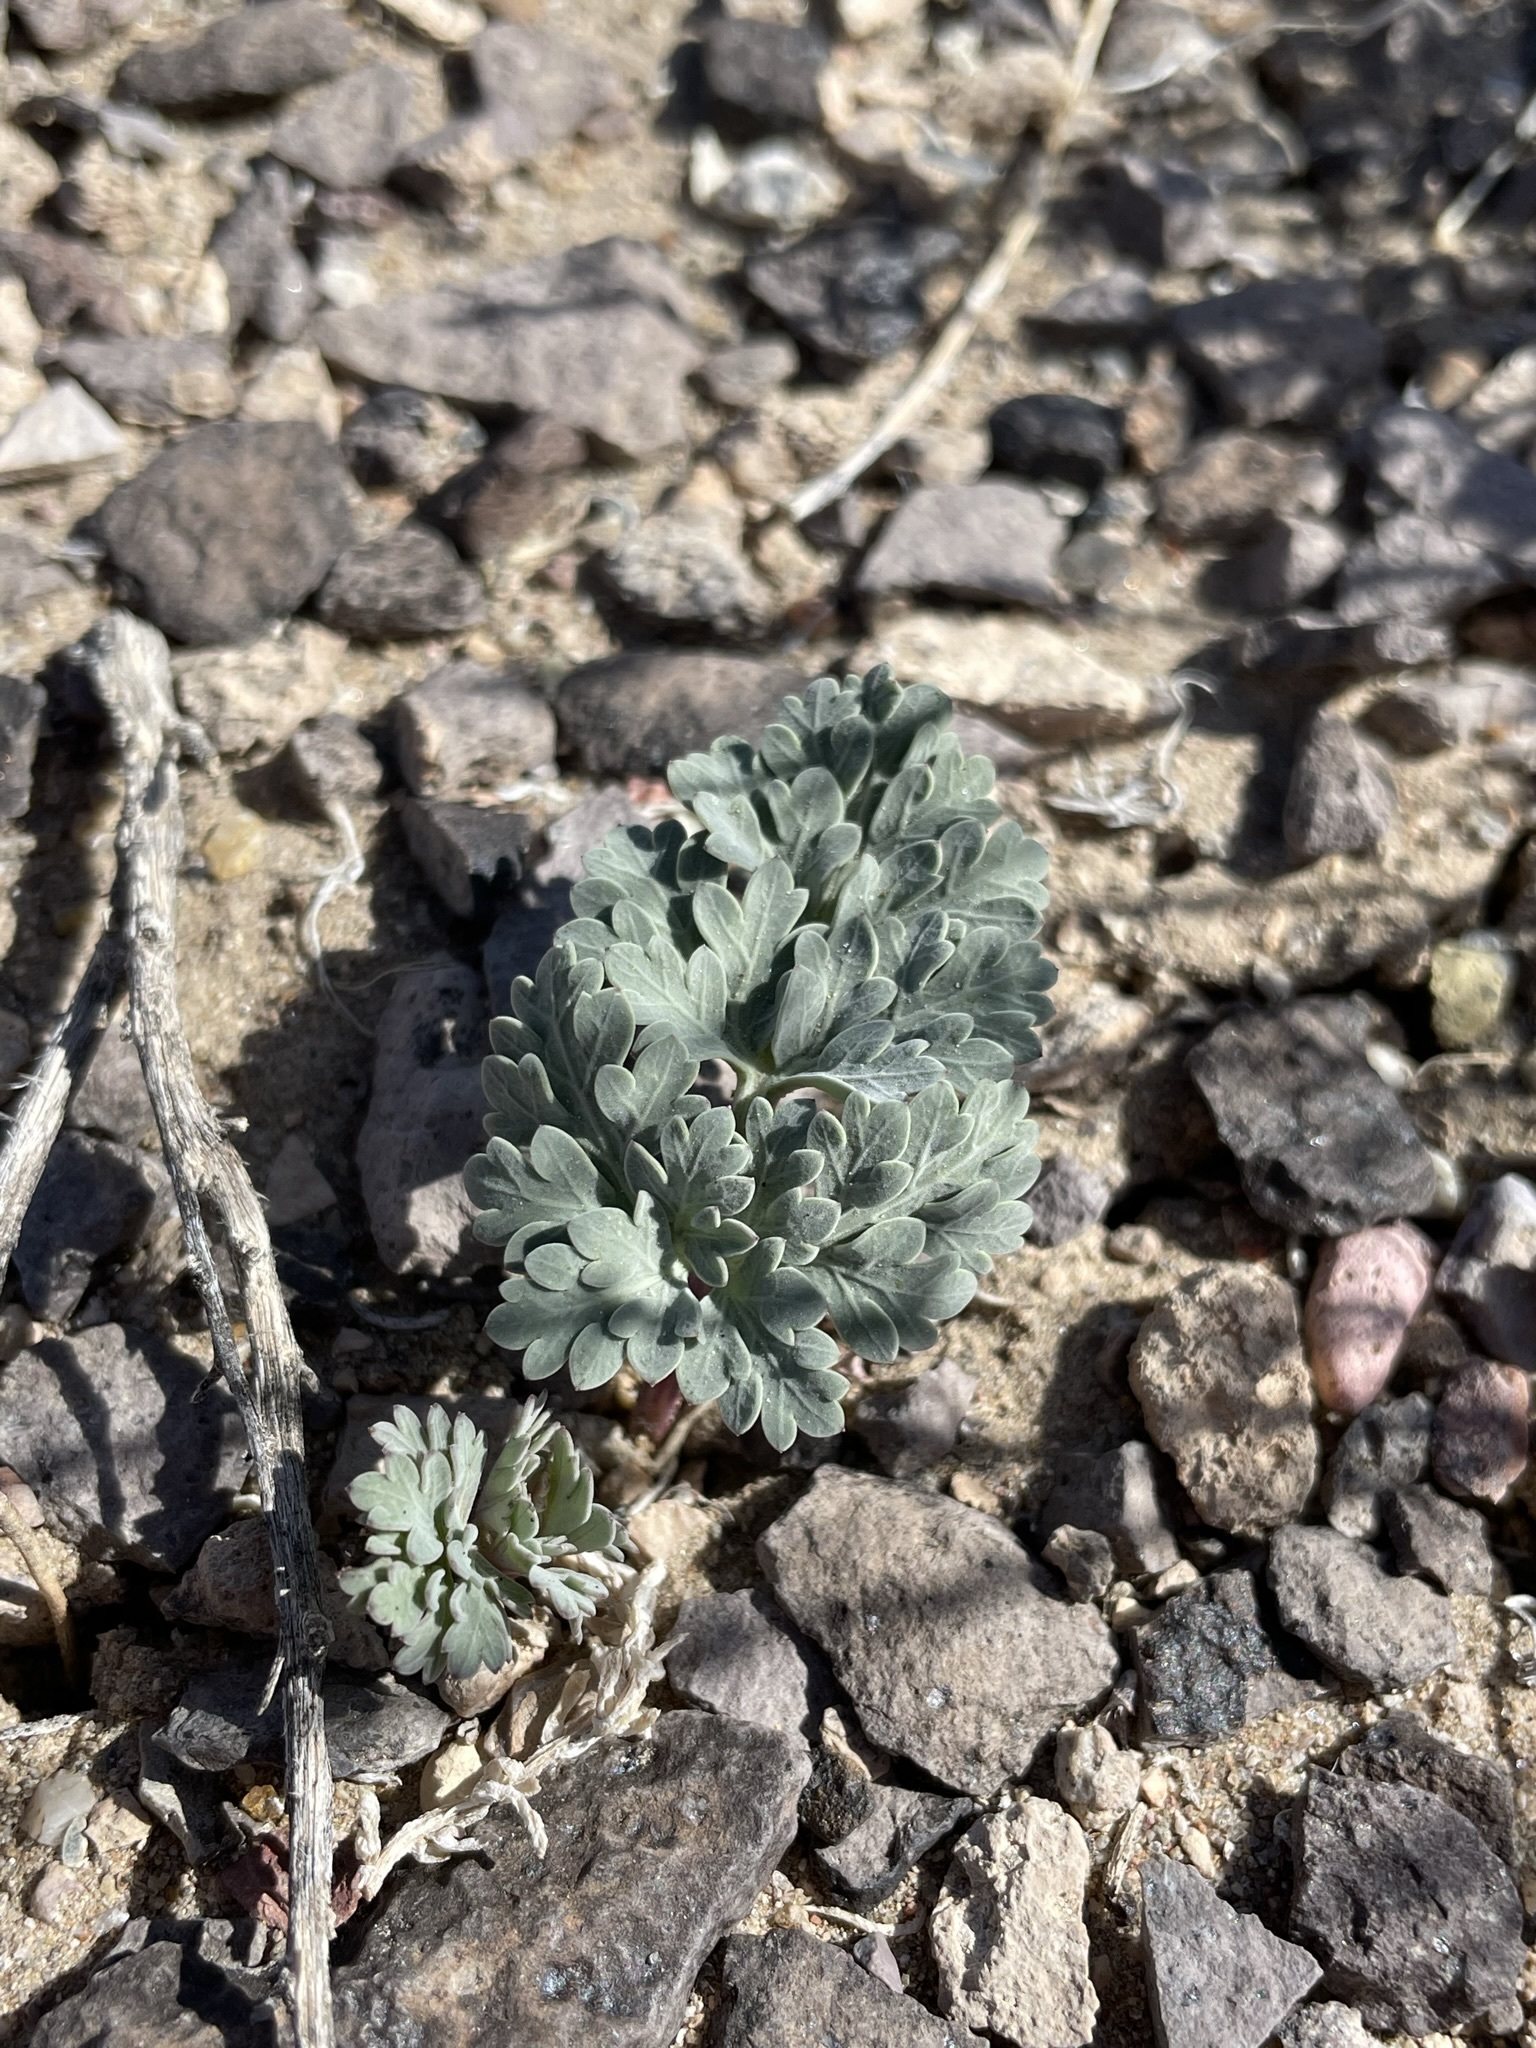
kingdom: Plantae
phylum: Tracheophyta
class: Magnoliopsida
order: Apiales
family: Apiaceae
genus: Cymopterus
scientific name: Cymopterus globosus
